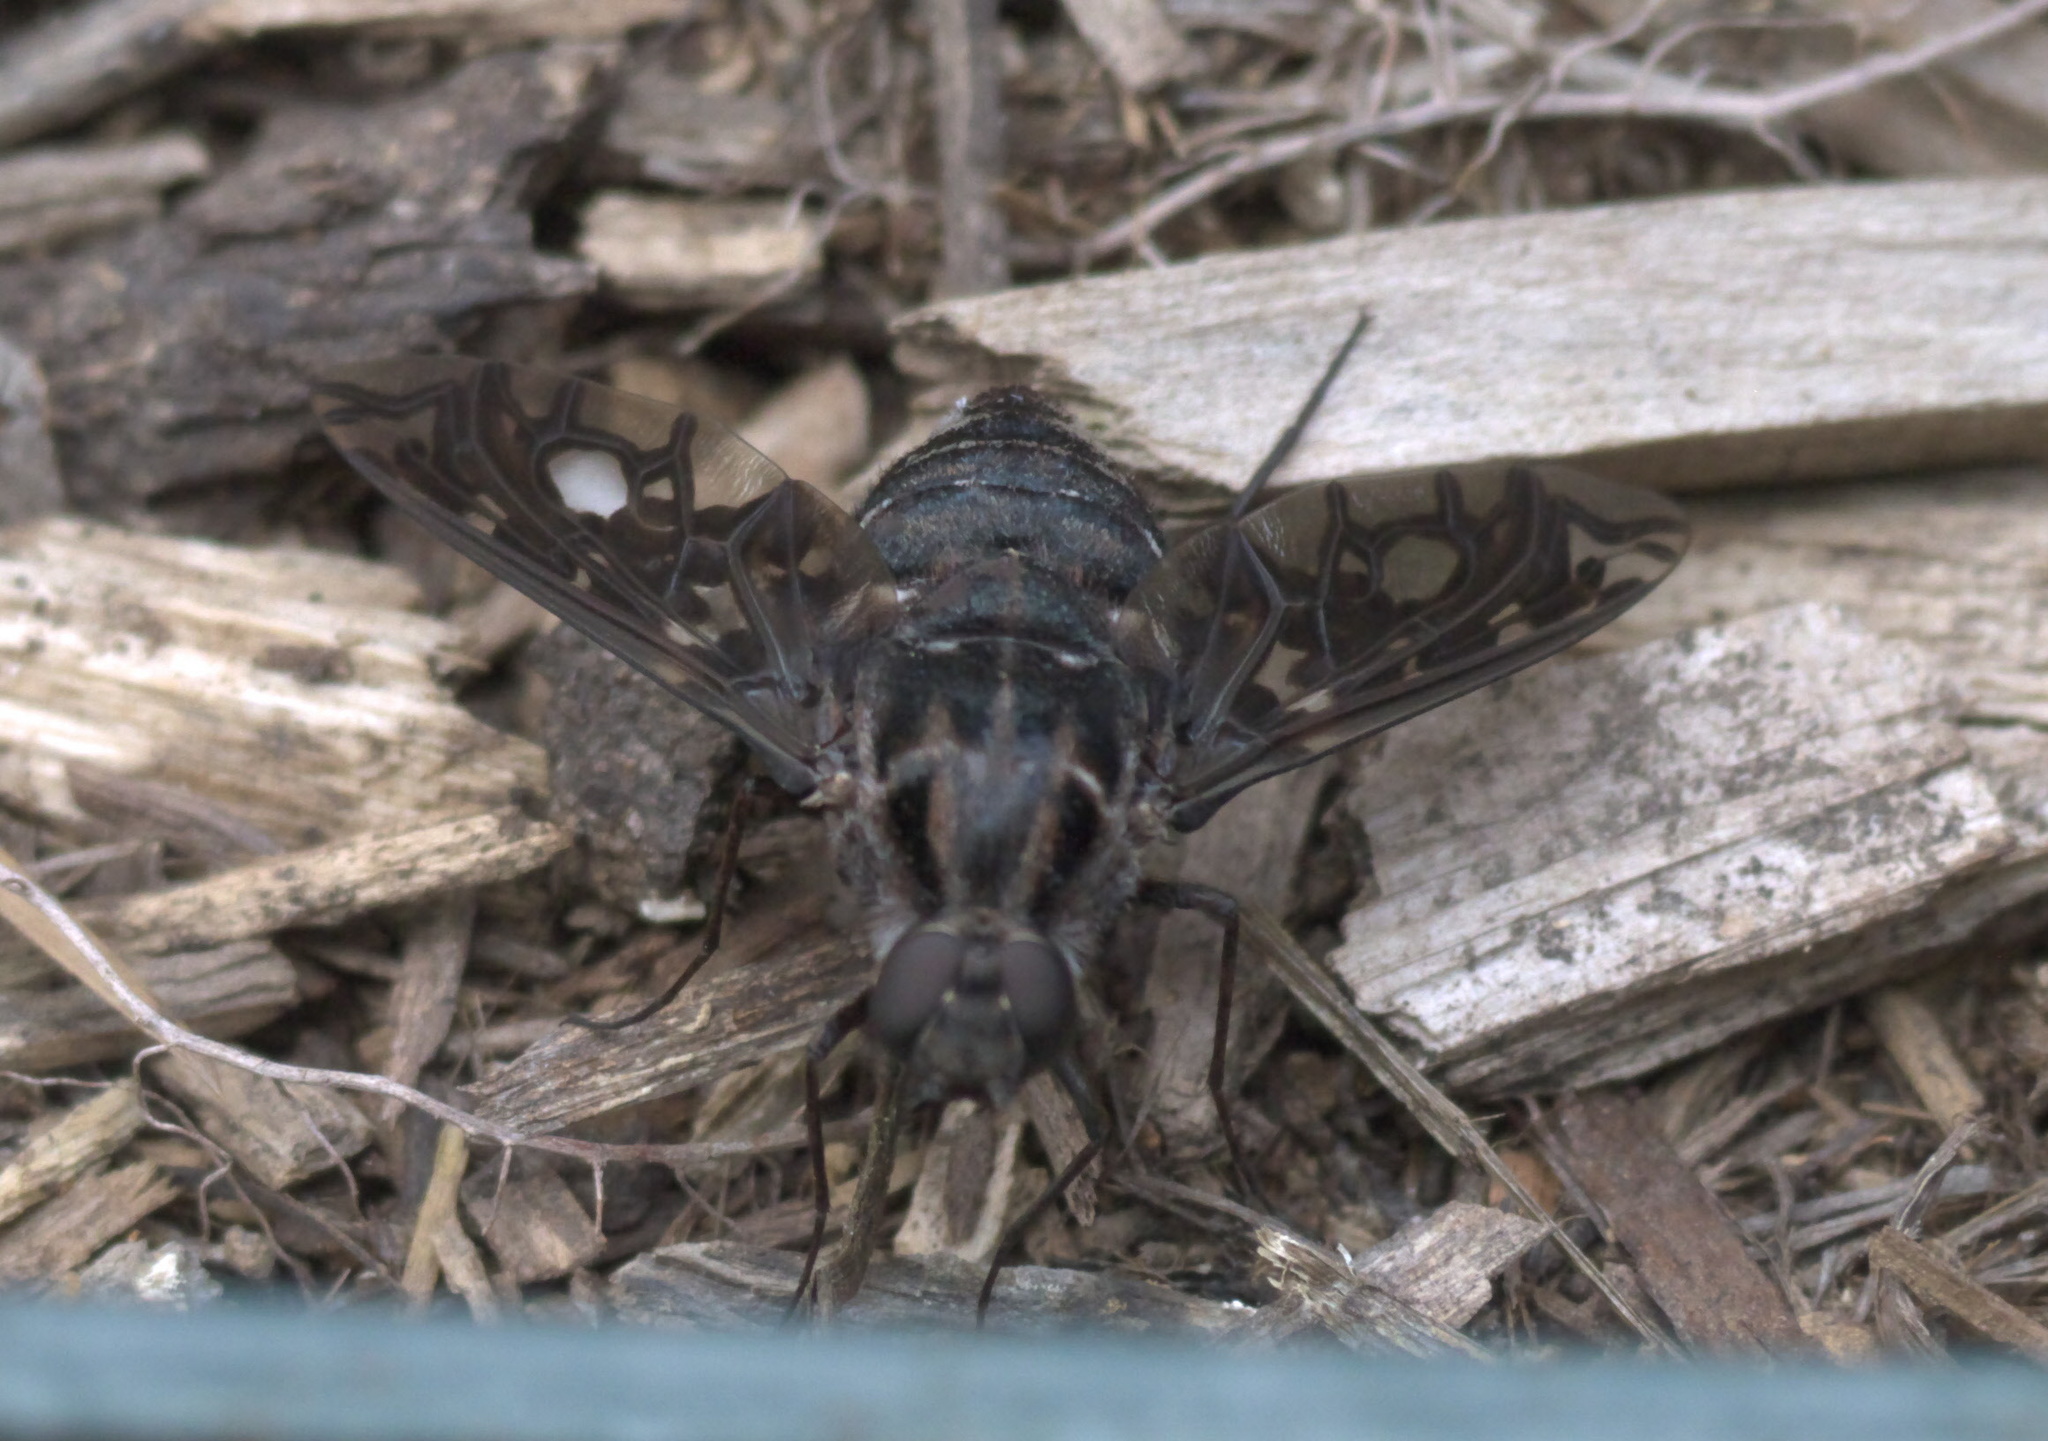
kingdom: Animalia
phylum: Arthropoda
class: Insecta
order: Diptera
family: Bombyliidae
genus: Xenox
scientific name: Xenox tigrinus
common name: Tiger bee fly
